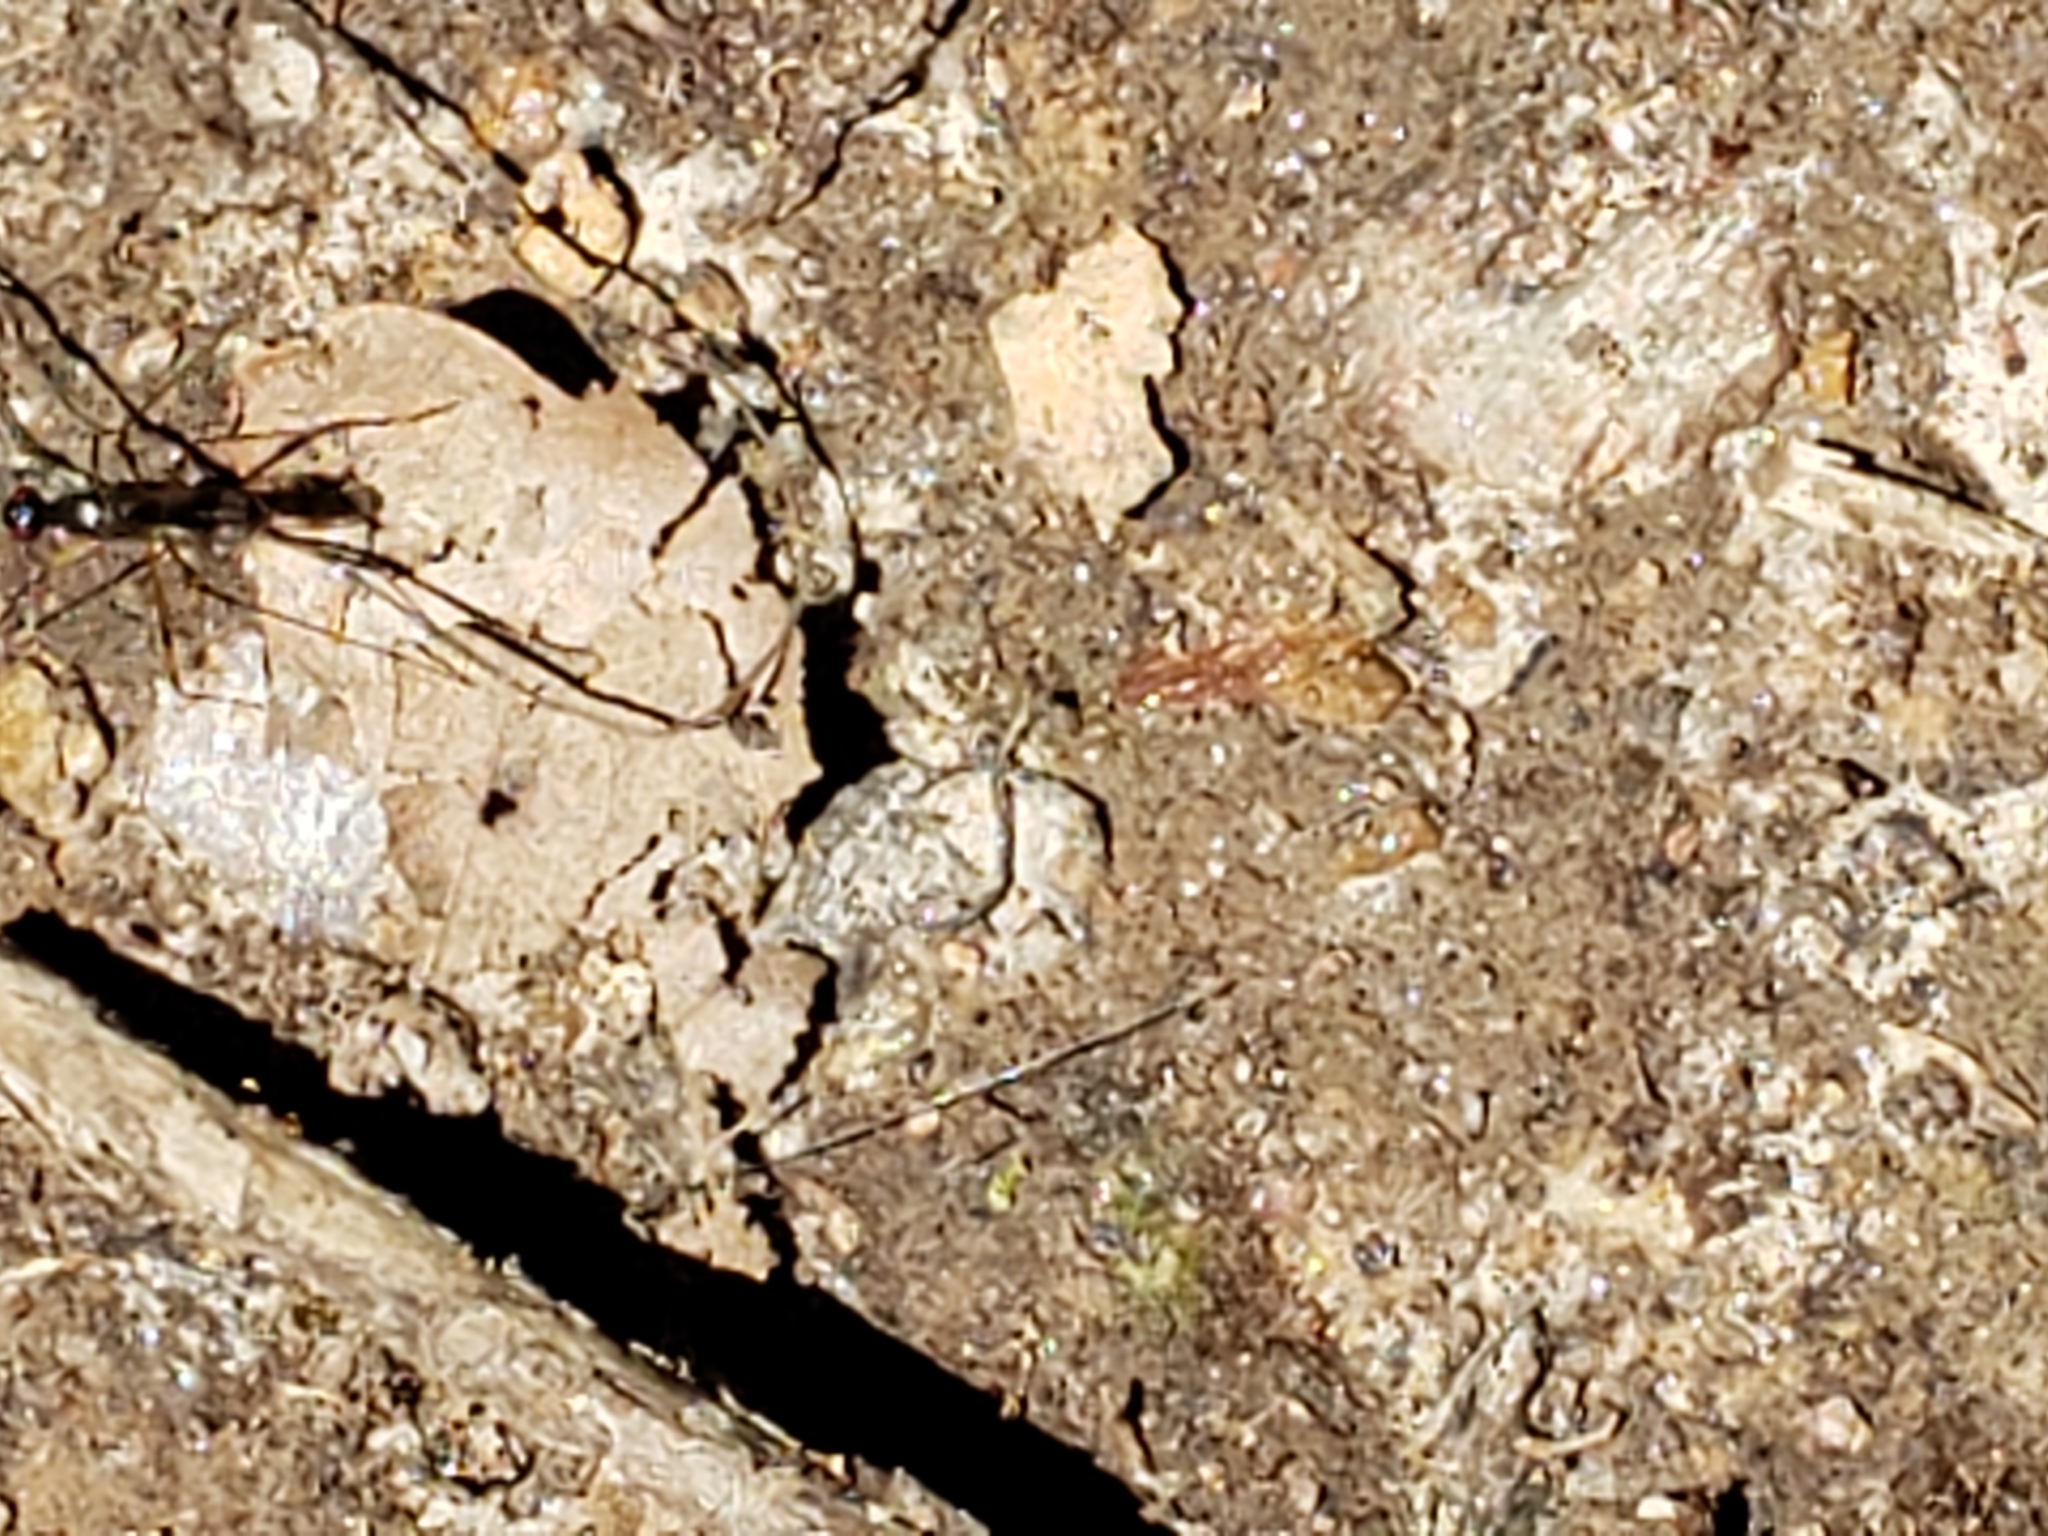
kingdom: Animalia
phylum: Arthropoda
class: Insecta
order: Diptera
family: Micropezidae
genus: Rainieria
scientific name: Rainieria antennaepes
